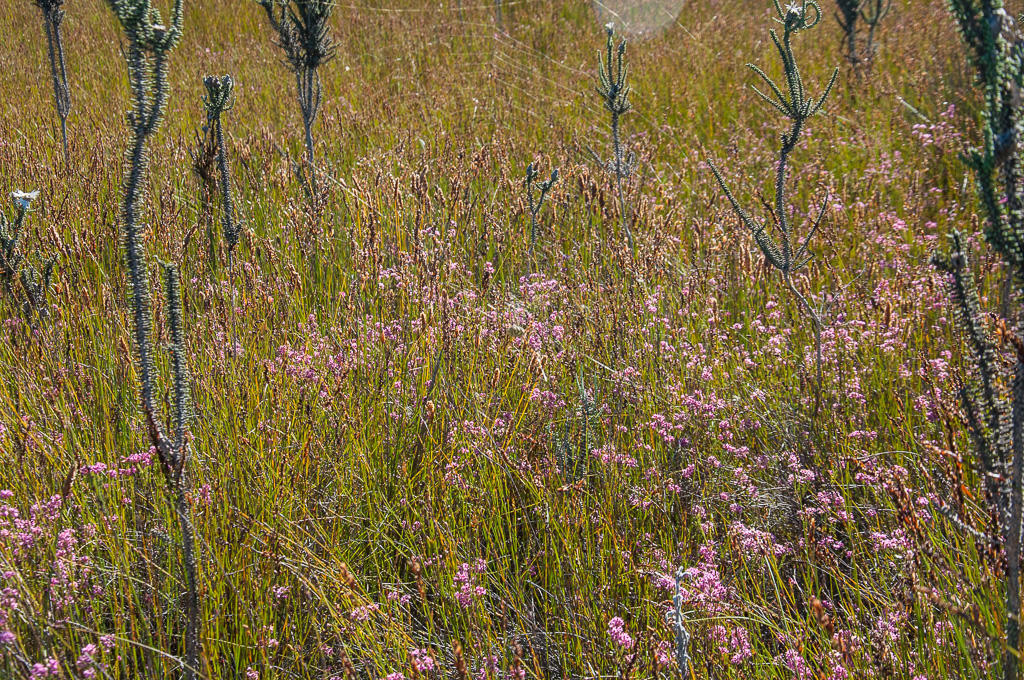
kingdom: Plantae
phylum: Tracheophyta
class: Magnoliopsida
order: Asterales
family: Asteraceae
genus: Phaenocoma
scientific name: Phaenocoma prolifera
